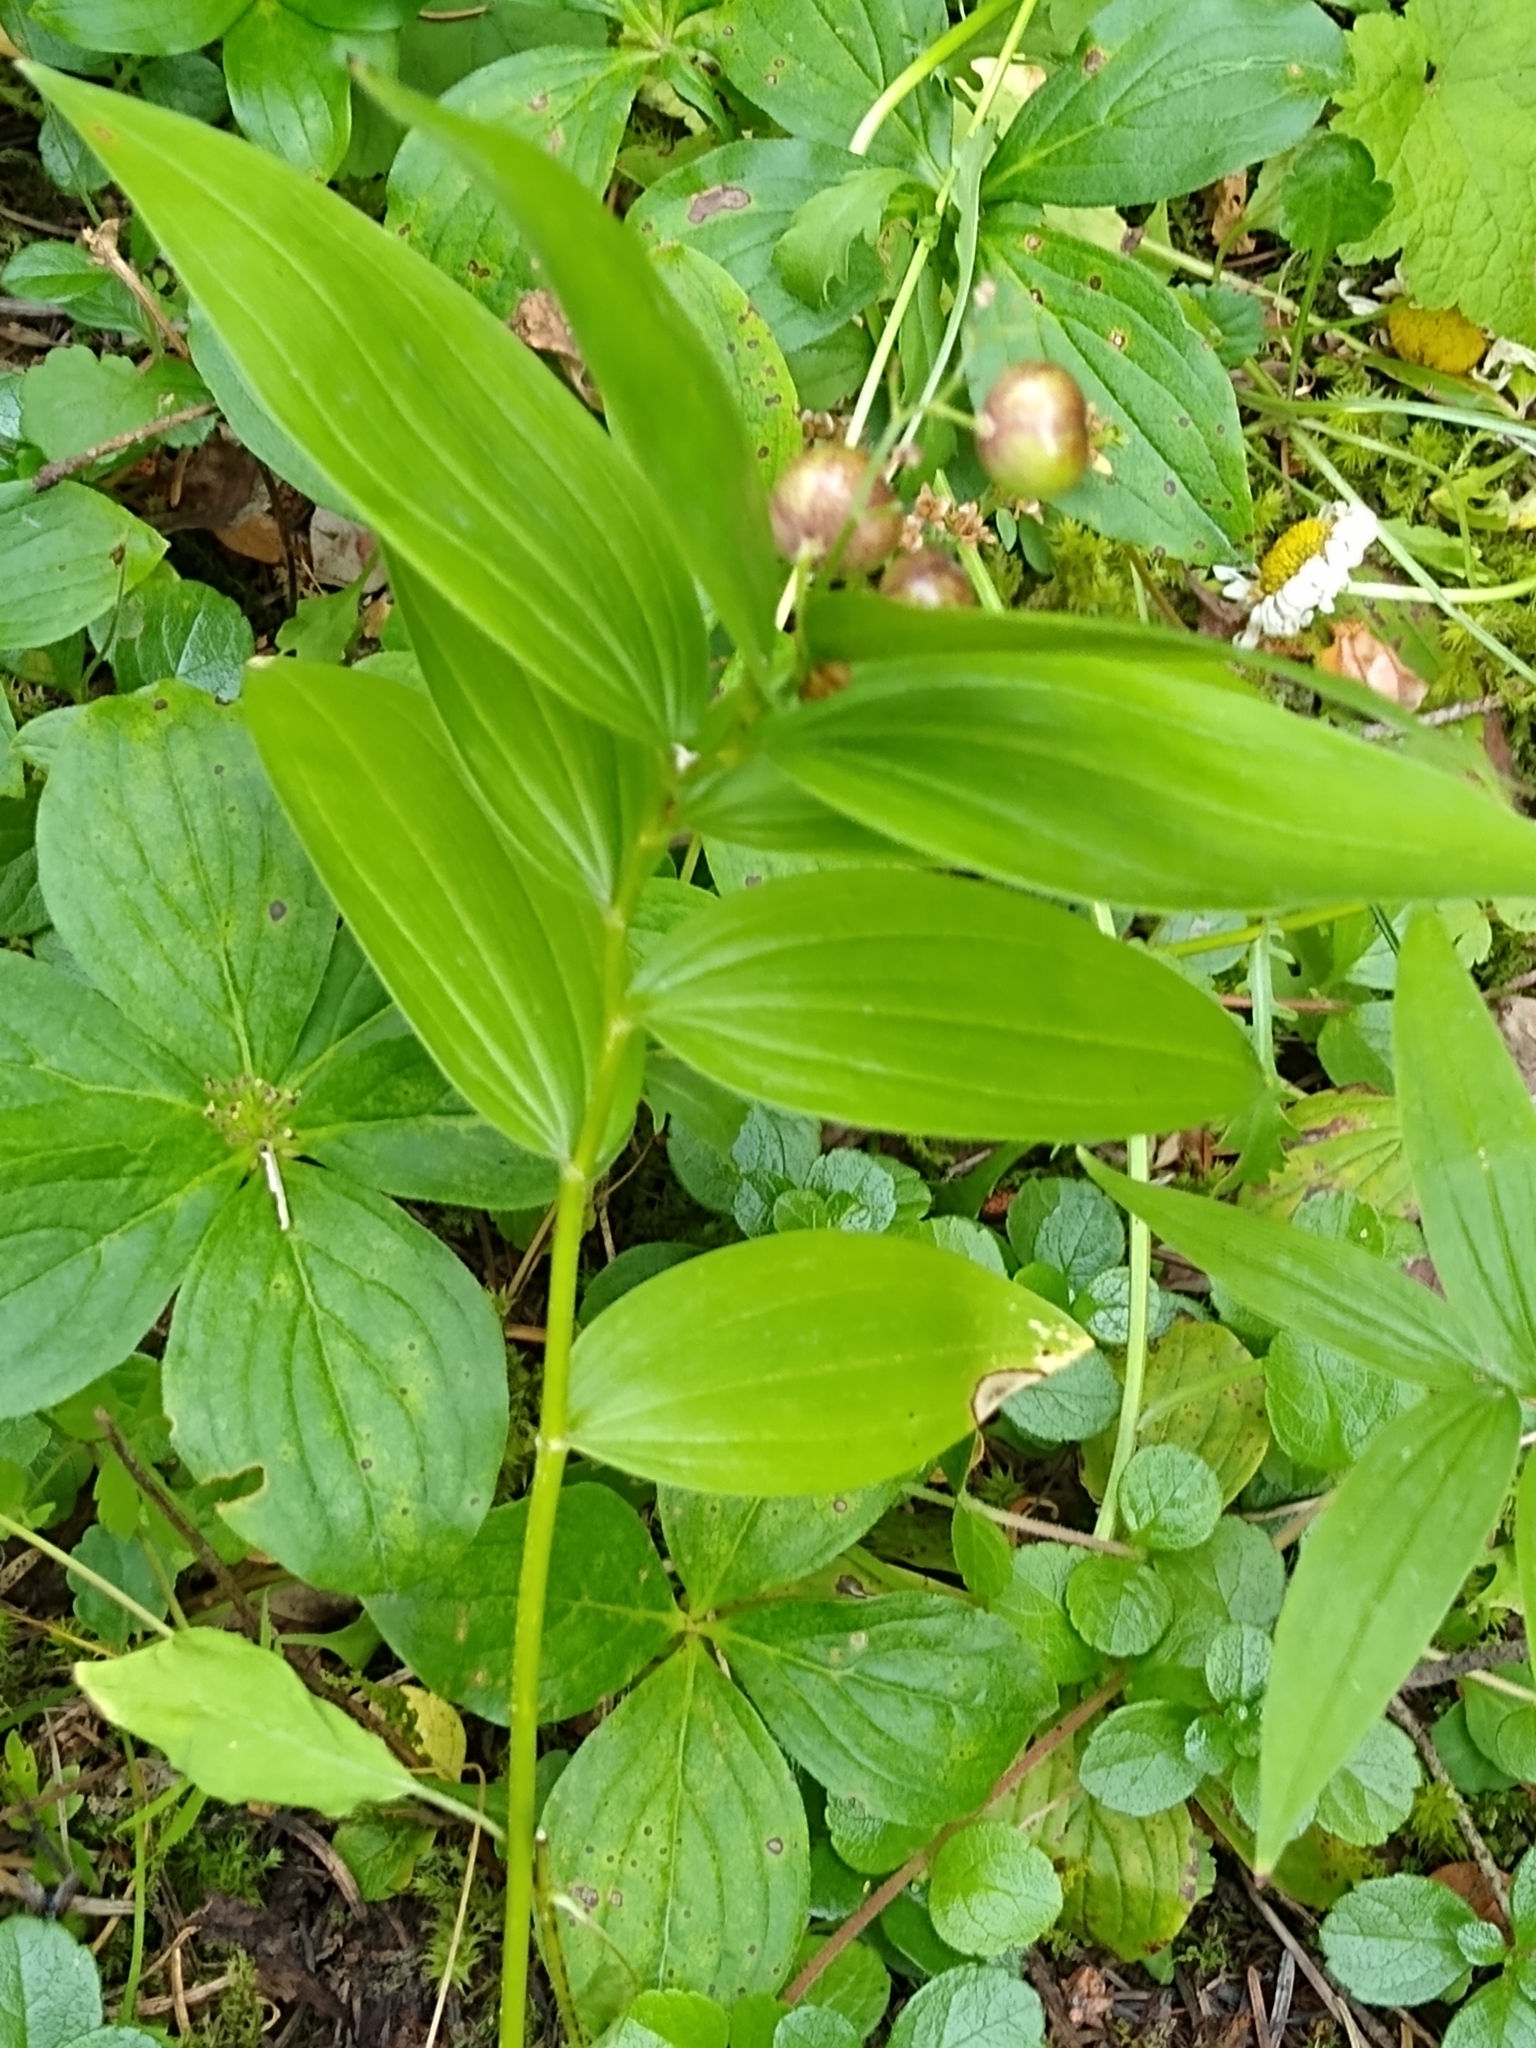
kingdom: Plantae
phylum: Tracheophyta
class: Liliopsida
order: Asparagales
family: Asparagaceae
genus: Maianthemum
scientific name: Maianthemum stellatum
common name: Little false solomon's seal
